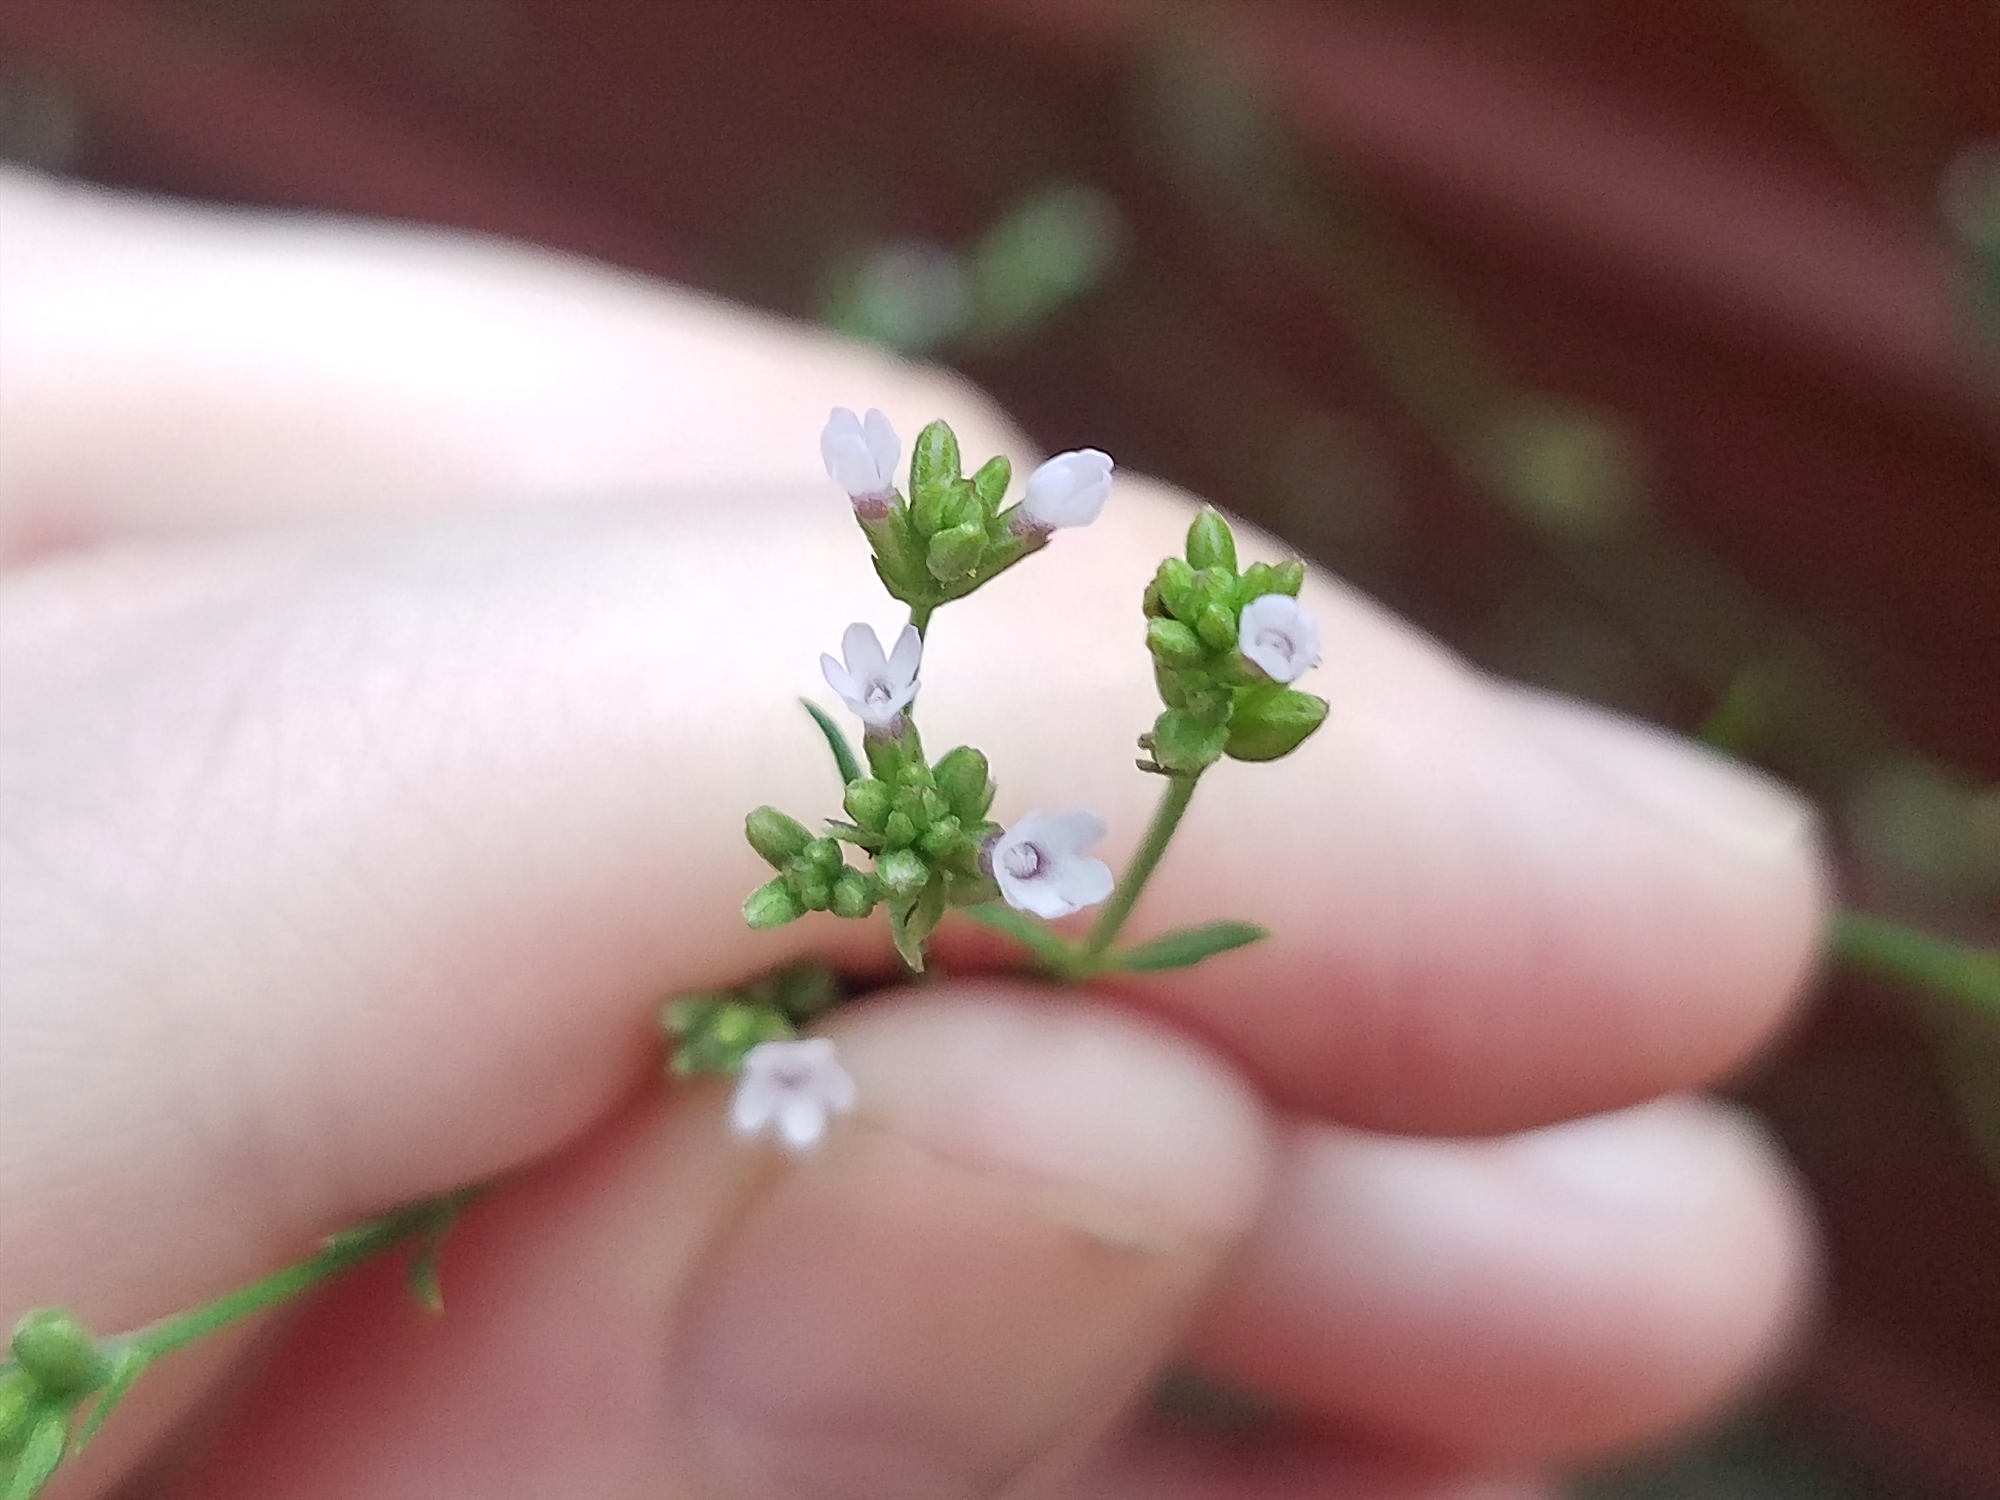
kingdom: Plantae
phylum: Tracheophyta
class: Magnoliopsida
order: Lamiales
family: Verbenaceae
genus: Verbena
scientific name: Verbena brasiliensis
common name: Brazilian vervain
